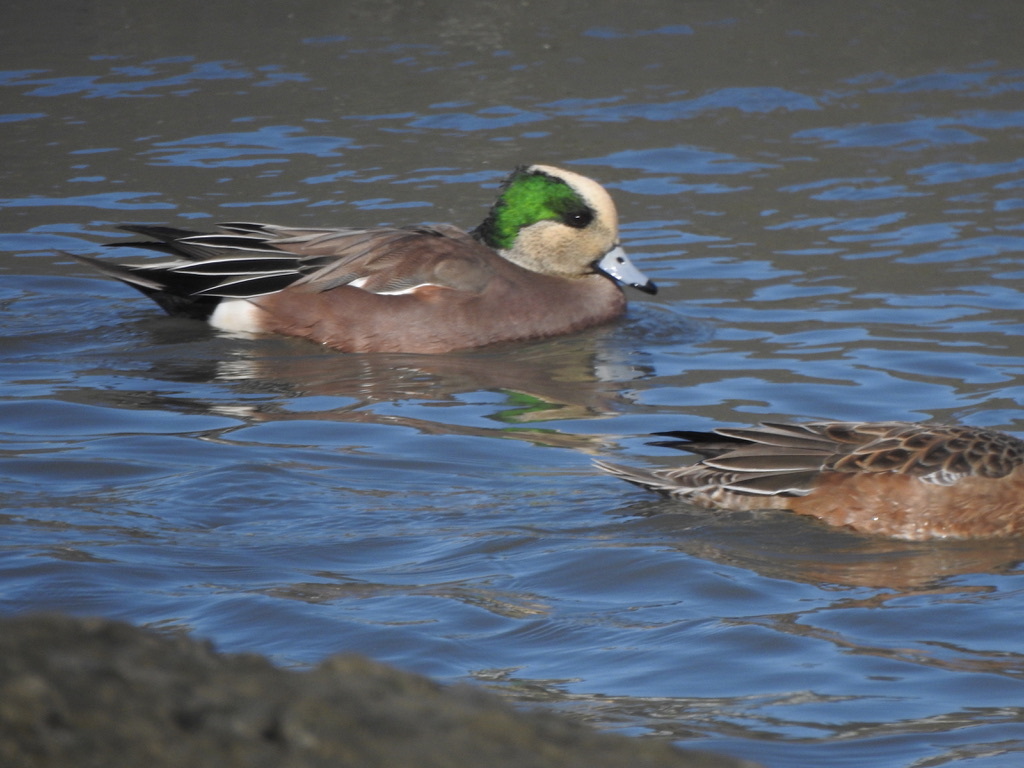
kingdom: Animalia
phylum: Chordata
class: Aves
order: Anseriformes
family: Anatidae
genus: Mareca
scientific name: Mareca americana
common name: American wigeon
